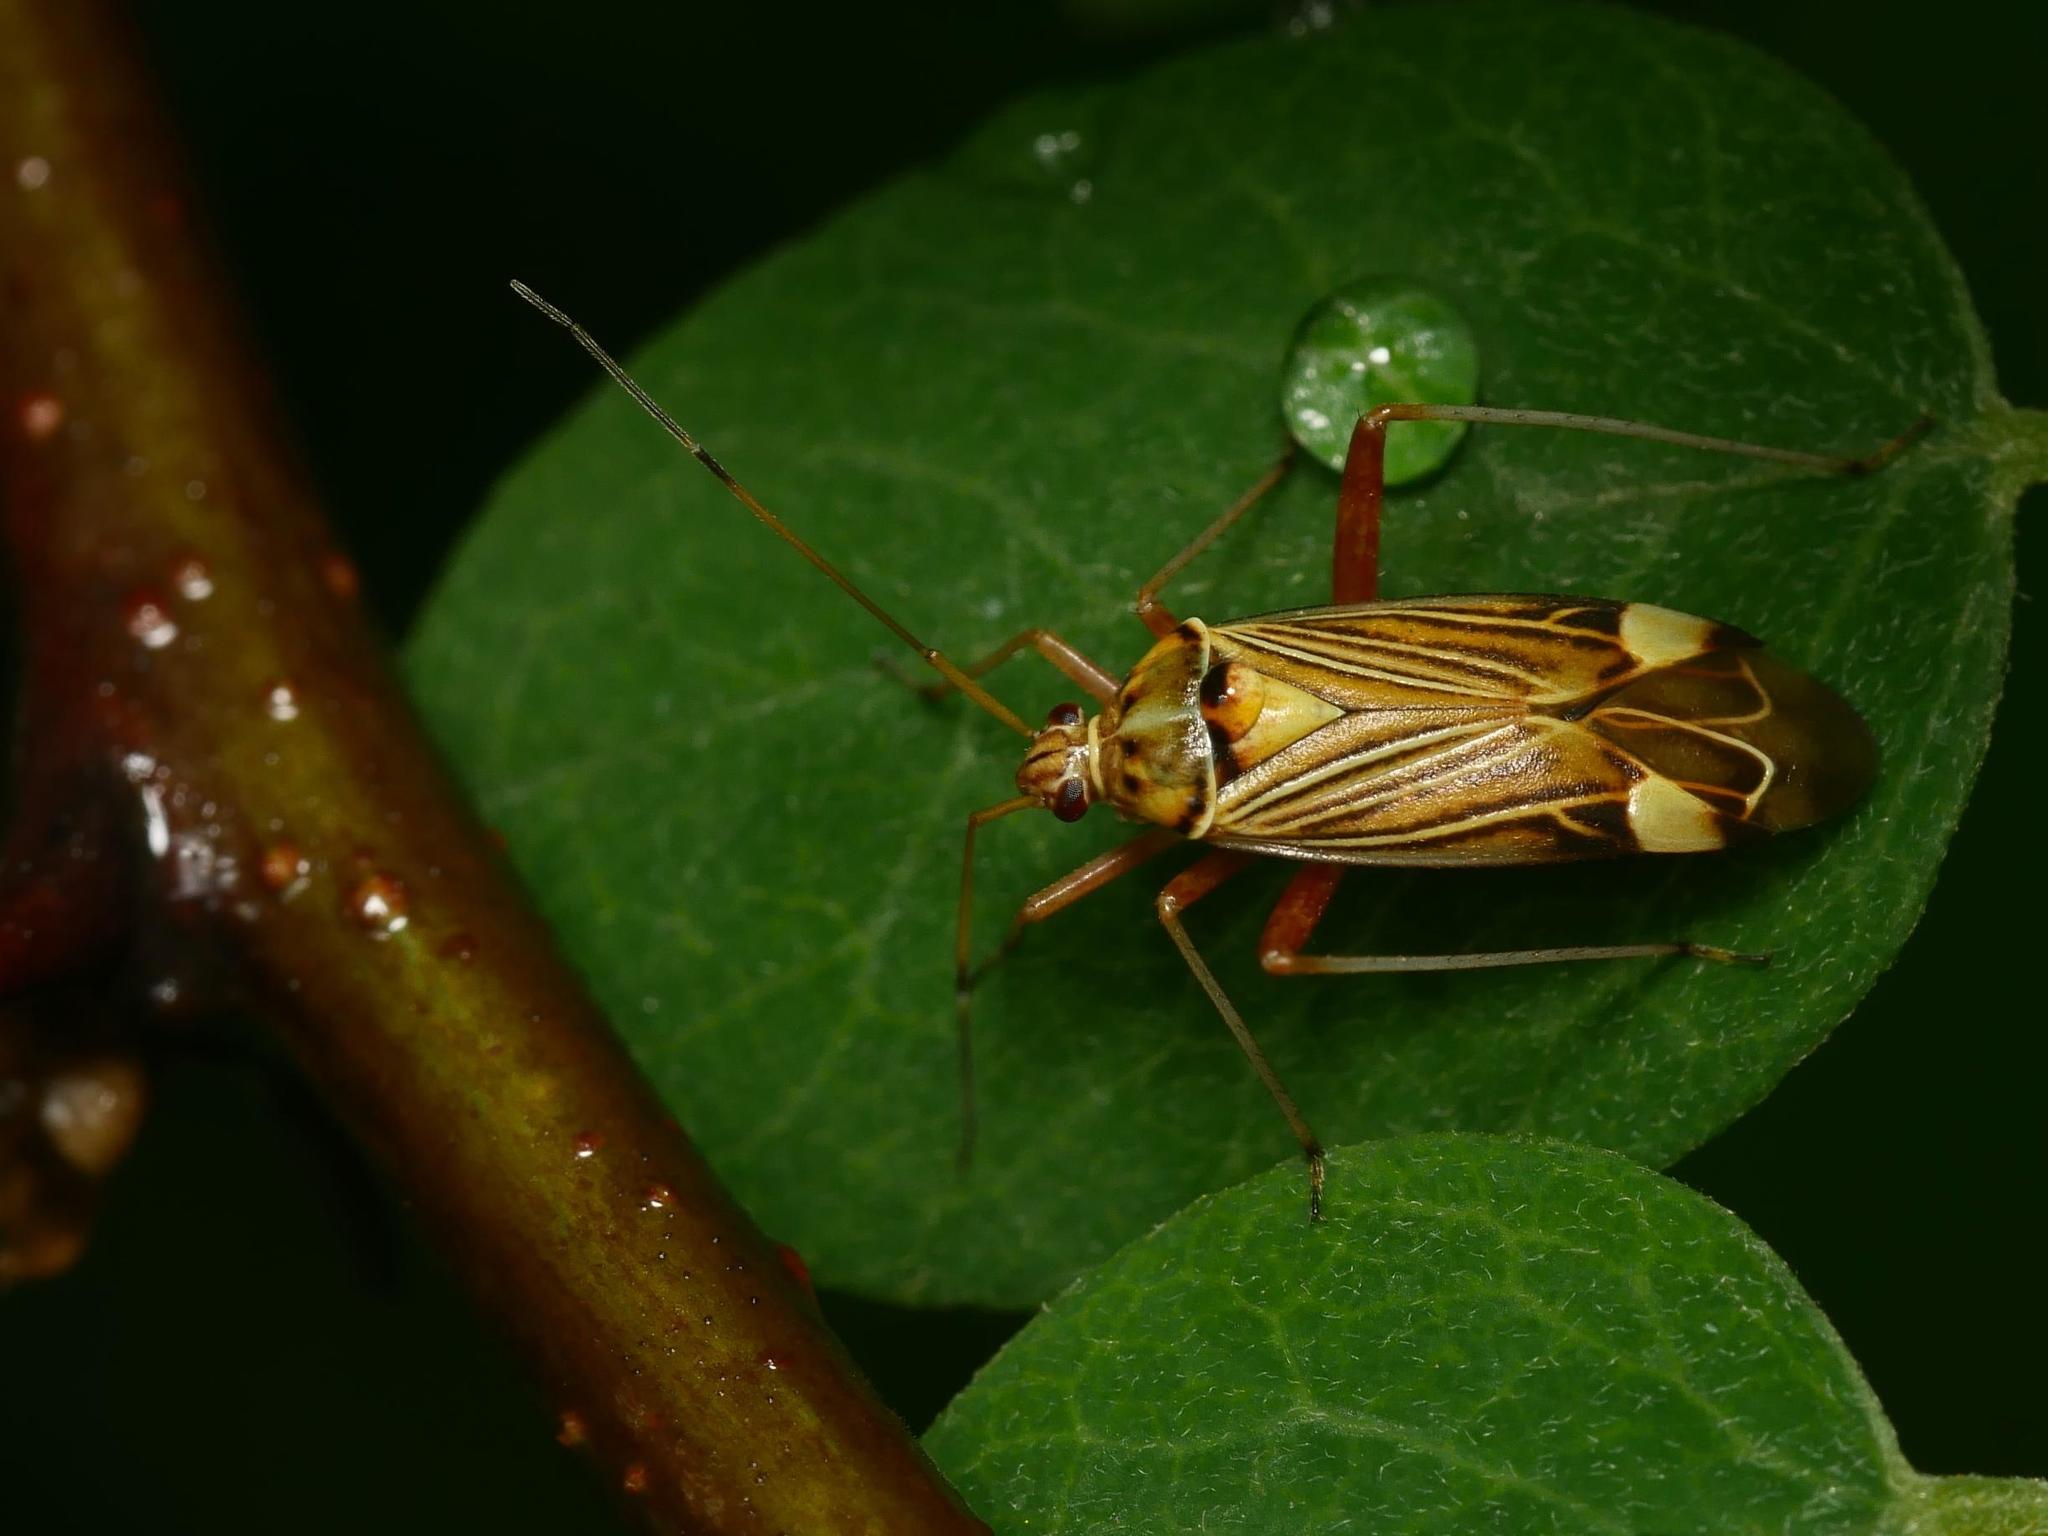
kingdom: Animalia
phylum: Arthropoda
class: Insecta
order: Hemiptera
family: Miridae
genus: Rhabdomiris
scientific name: Rhabdomiris striatellus
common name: Plant bug
